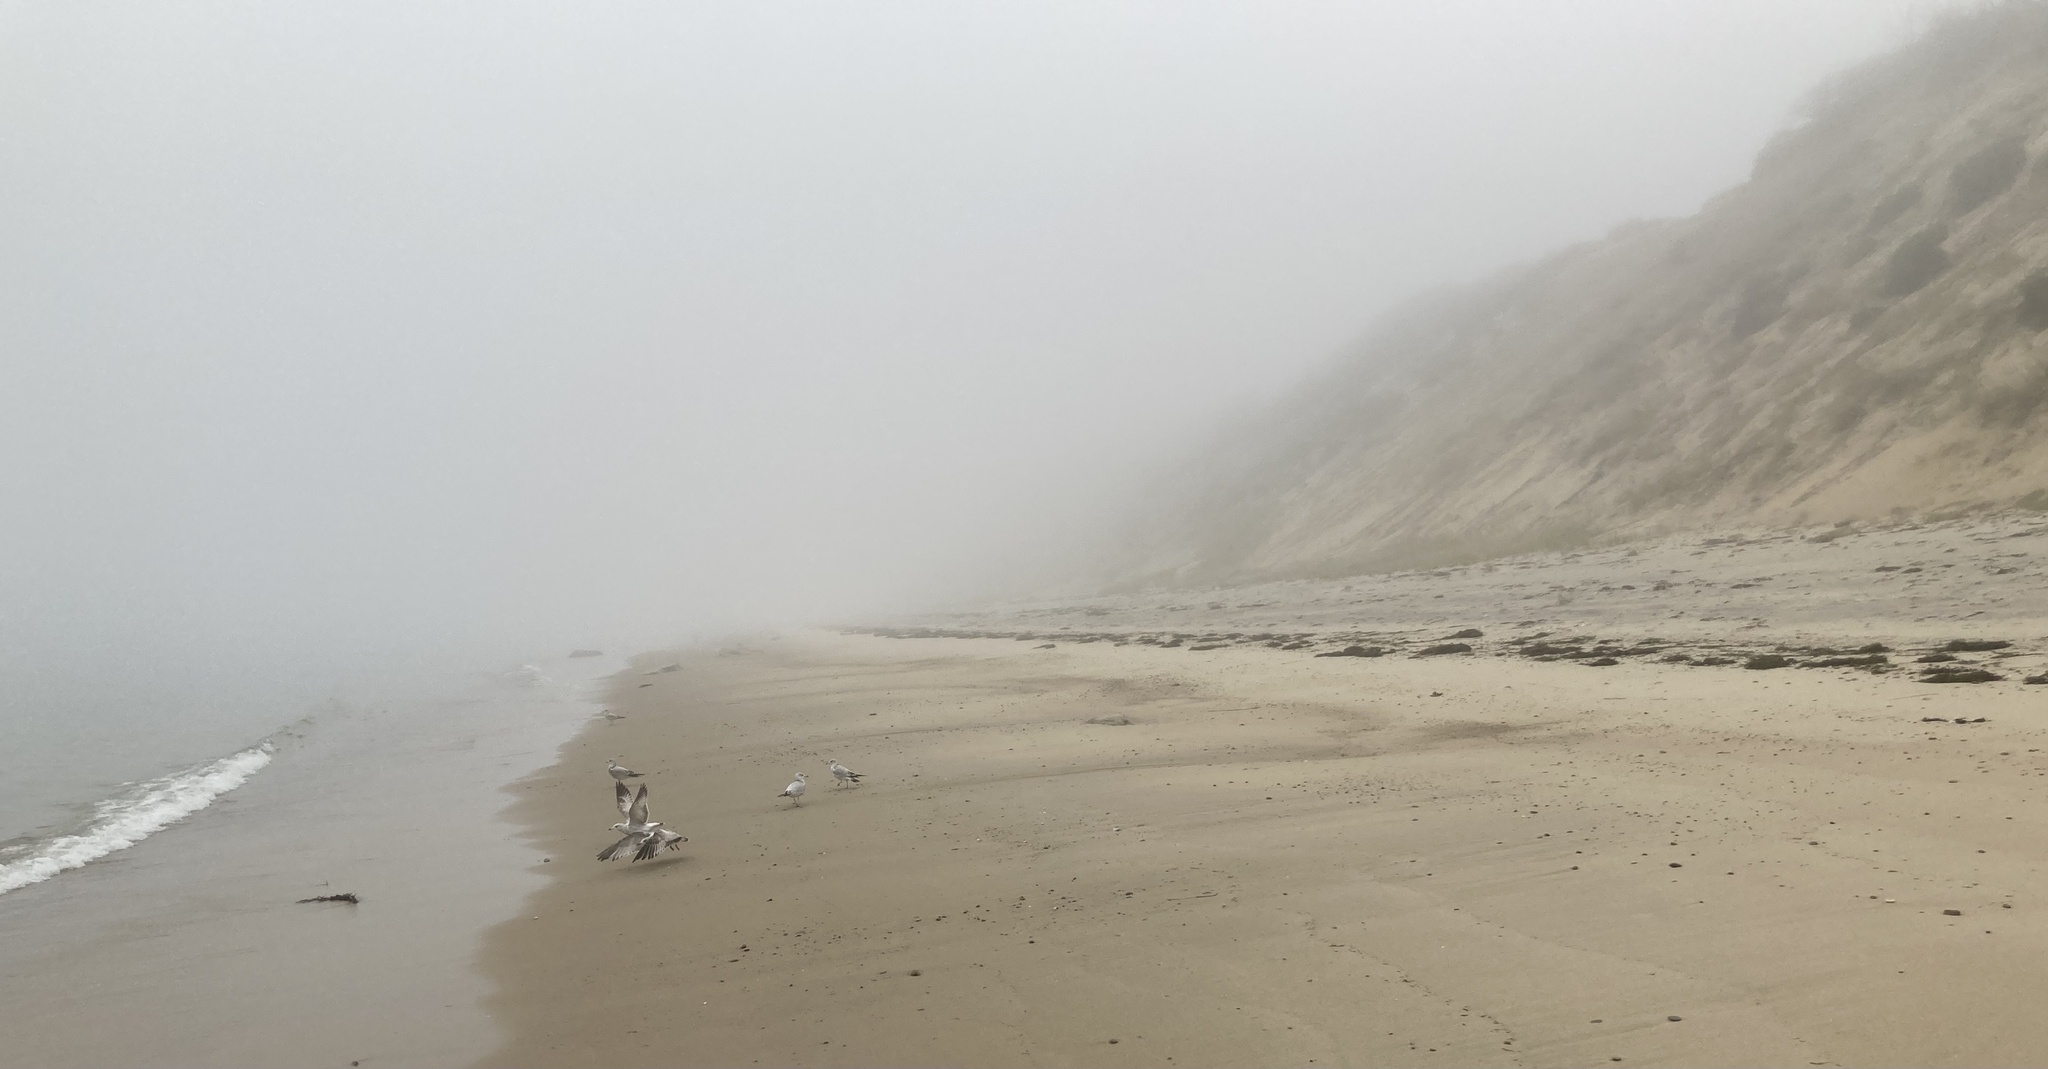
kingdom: Animalia
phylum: Chordata
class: Aves
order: Charadriiformes
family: Laridae
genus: Larus
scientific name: Larus delawarensis
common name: Ring-billed gull
